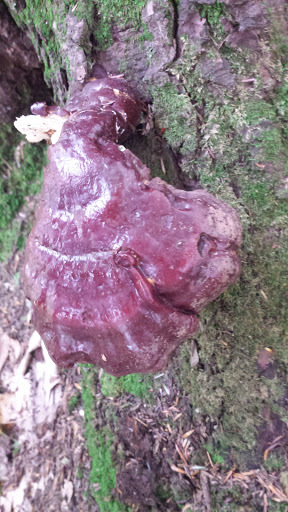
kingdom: Fungi
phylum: Basidiomycota
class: Agaricomycetes
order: Polyporales
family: Polyporaceae
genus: Ganoderma
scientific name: Ganoderma tsugae
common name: Hemlock varnish shelf
